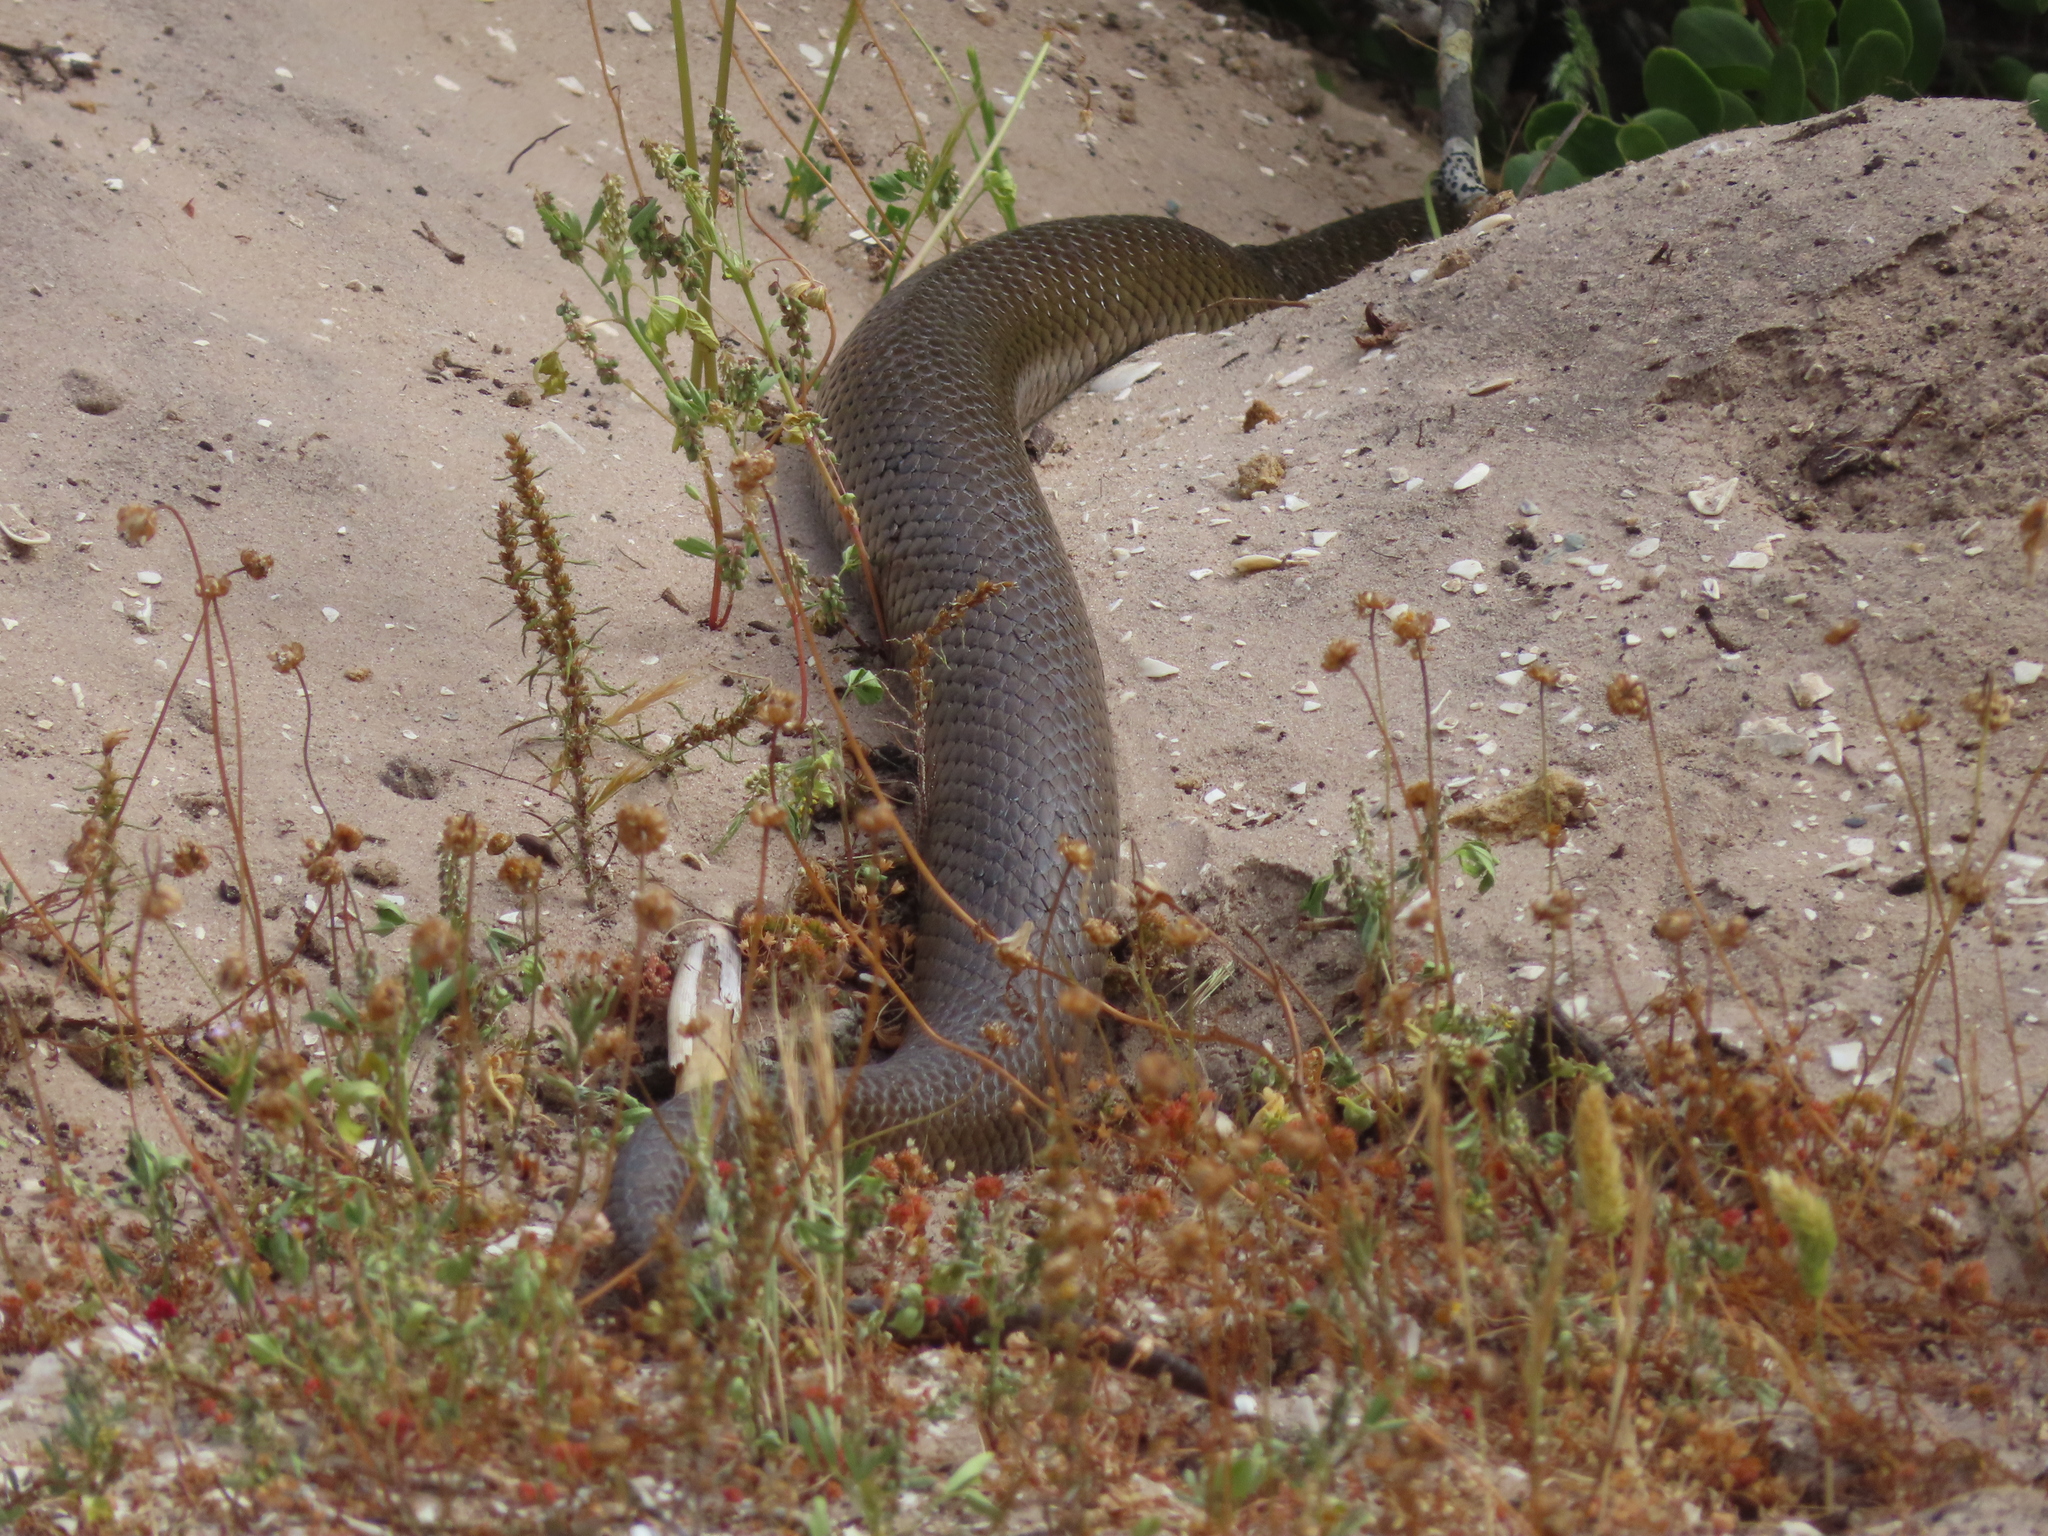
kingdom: Animalia
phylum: Chordata
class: Squamata
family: Pseudaspididae
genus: Pseudaspis
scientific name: Pseudaspis cana
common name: Mole snake
